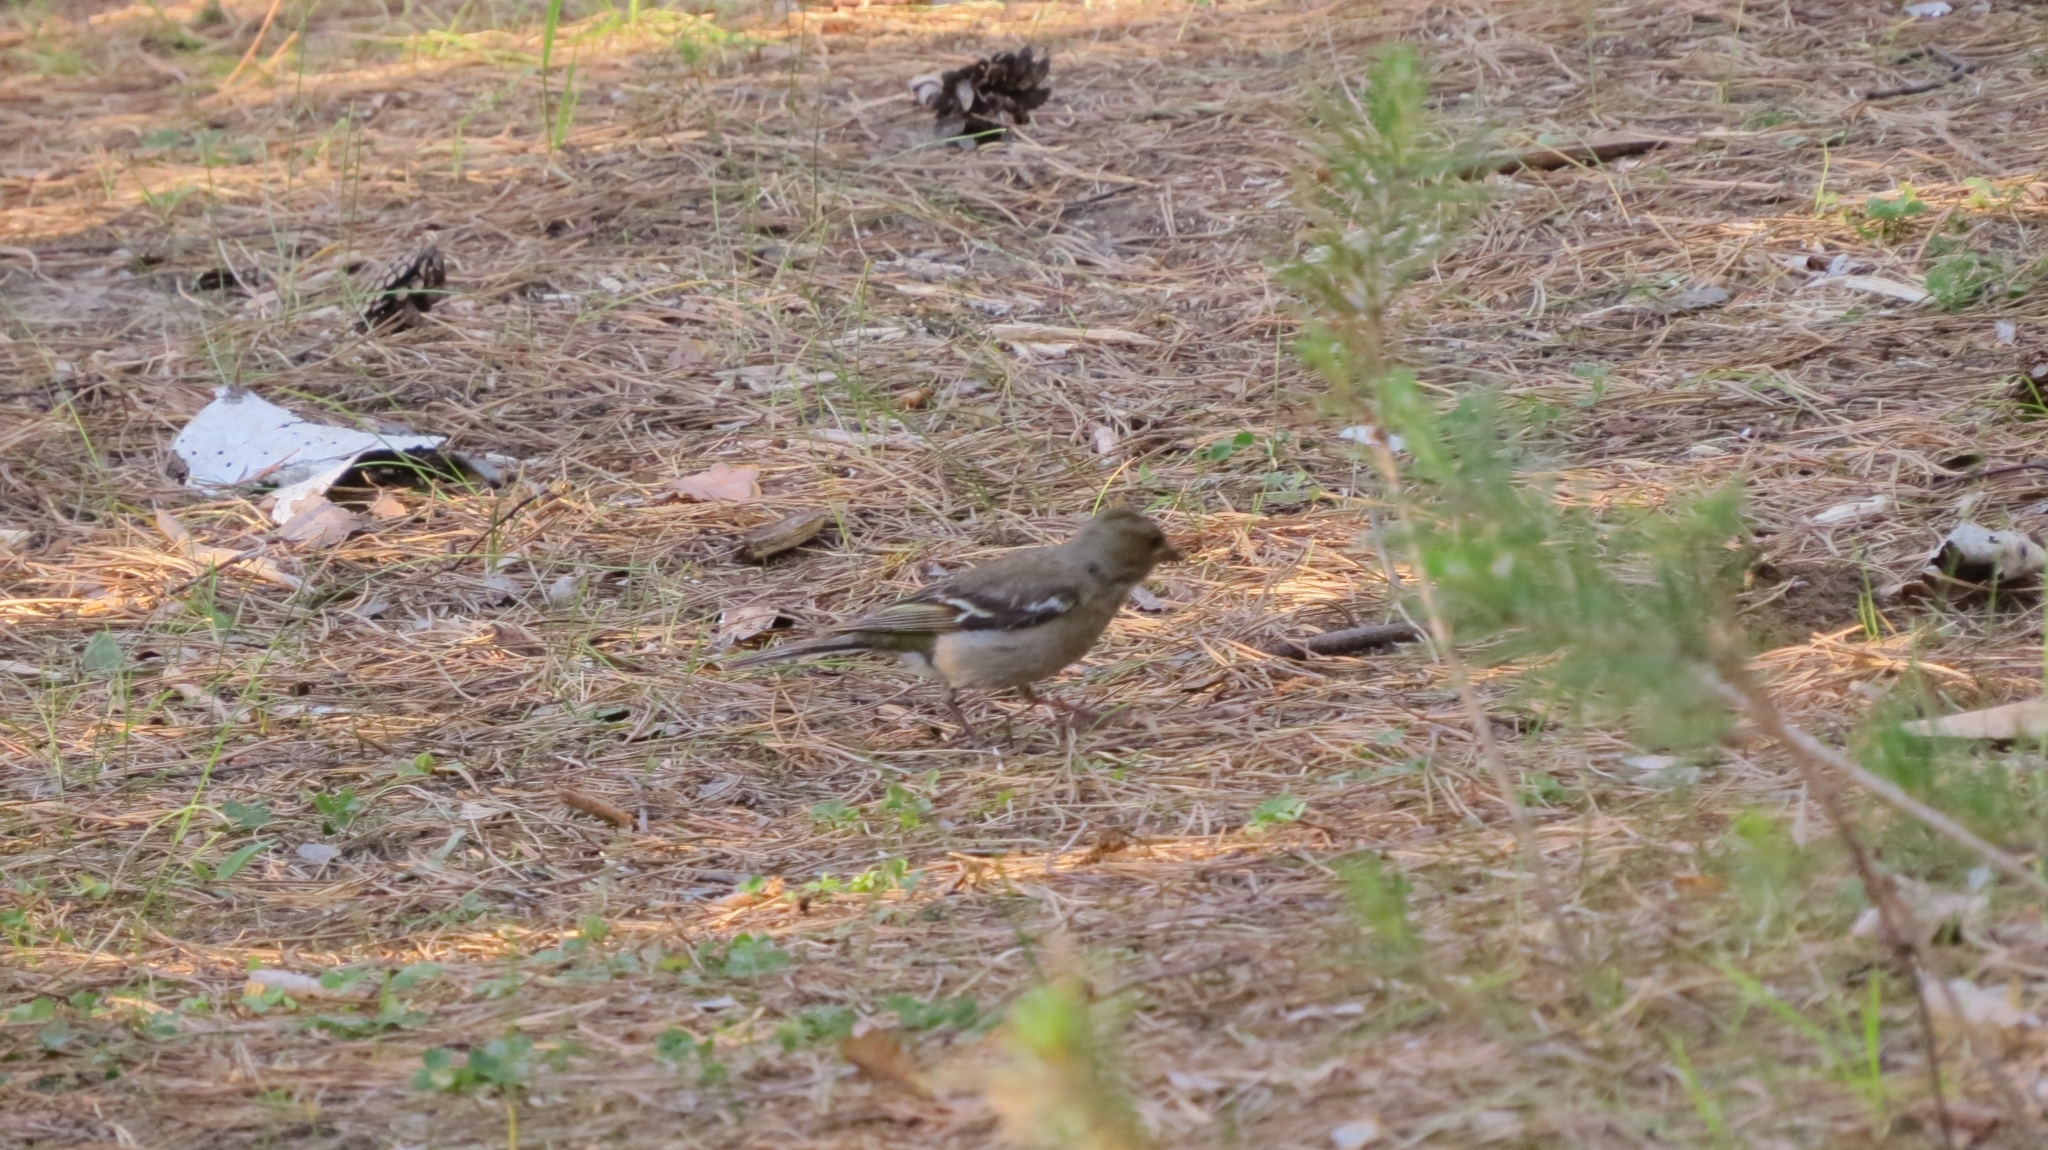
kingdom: Animalia
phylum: Chordata
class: Aves
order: Passeriformes
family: Fringillidae
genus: Fringilla
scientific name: Fringilla coelebs
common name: Common chaffinch
